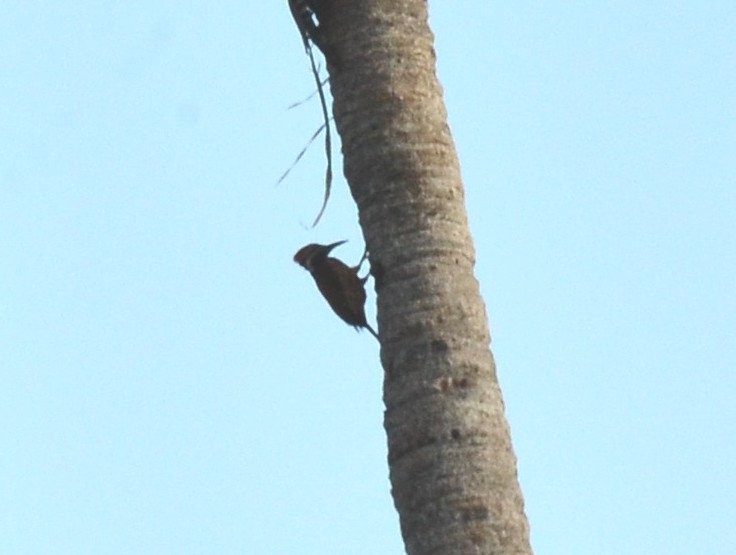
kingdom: Animalia
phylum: Chordata
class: Aves
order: Piciformes
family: Picidae
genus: Dinopium
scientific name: Dinopium benghalense
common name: Black-rumped flameback
